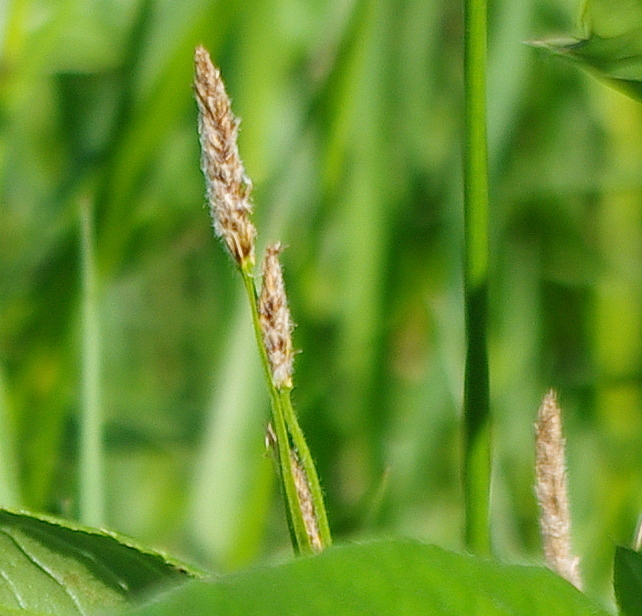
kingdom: Plantae
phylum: Tracheophyta
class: Liliopsida
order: Poales
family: Cyperaceae
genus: Carex
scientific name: Carex hirta
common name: Hairy sedge
